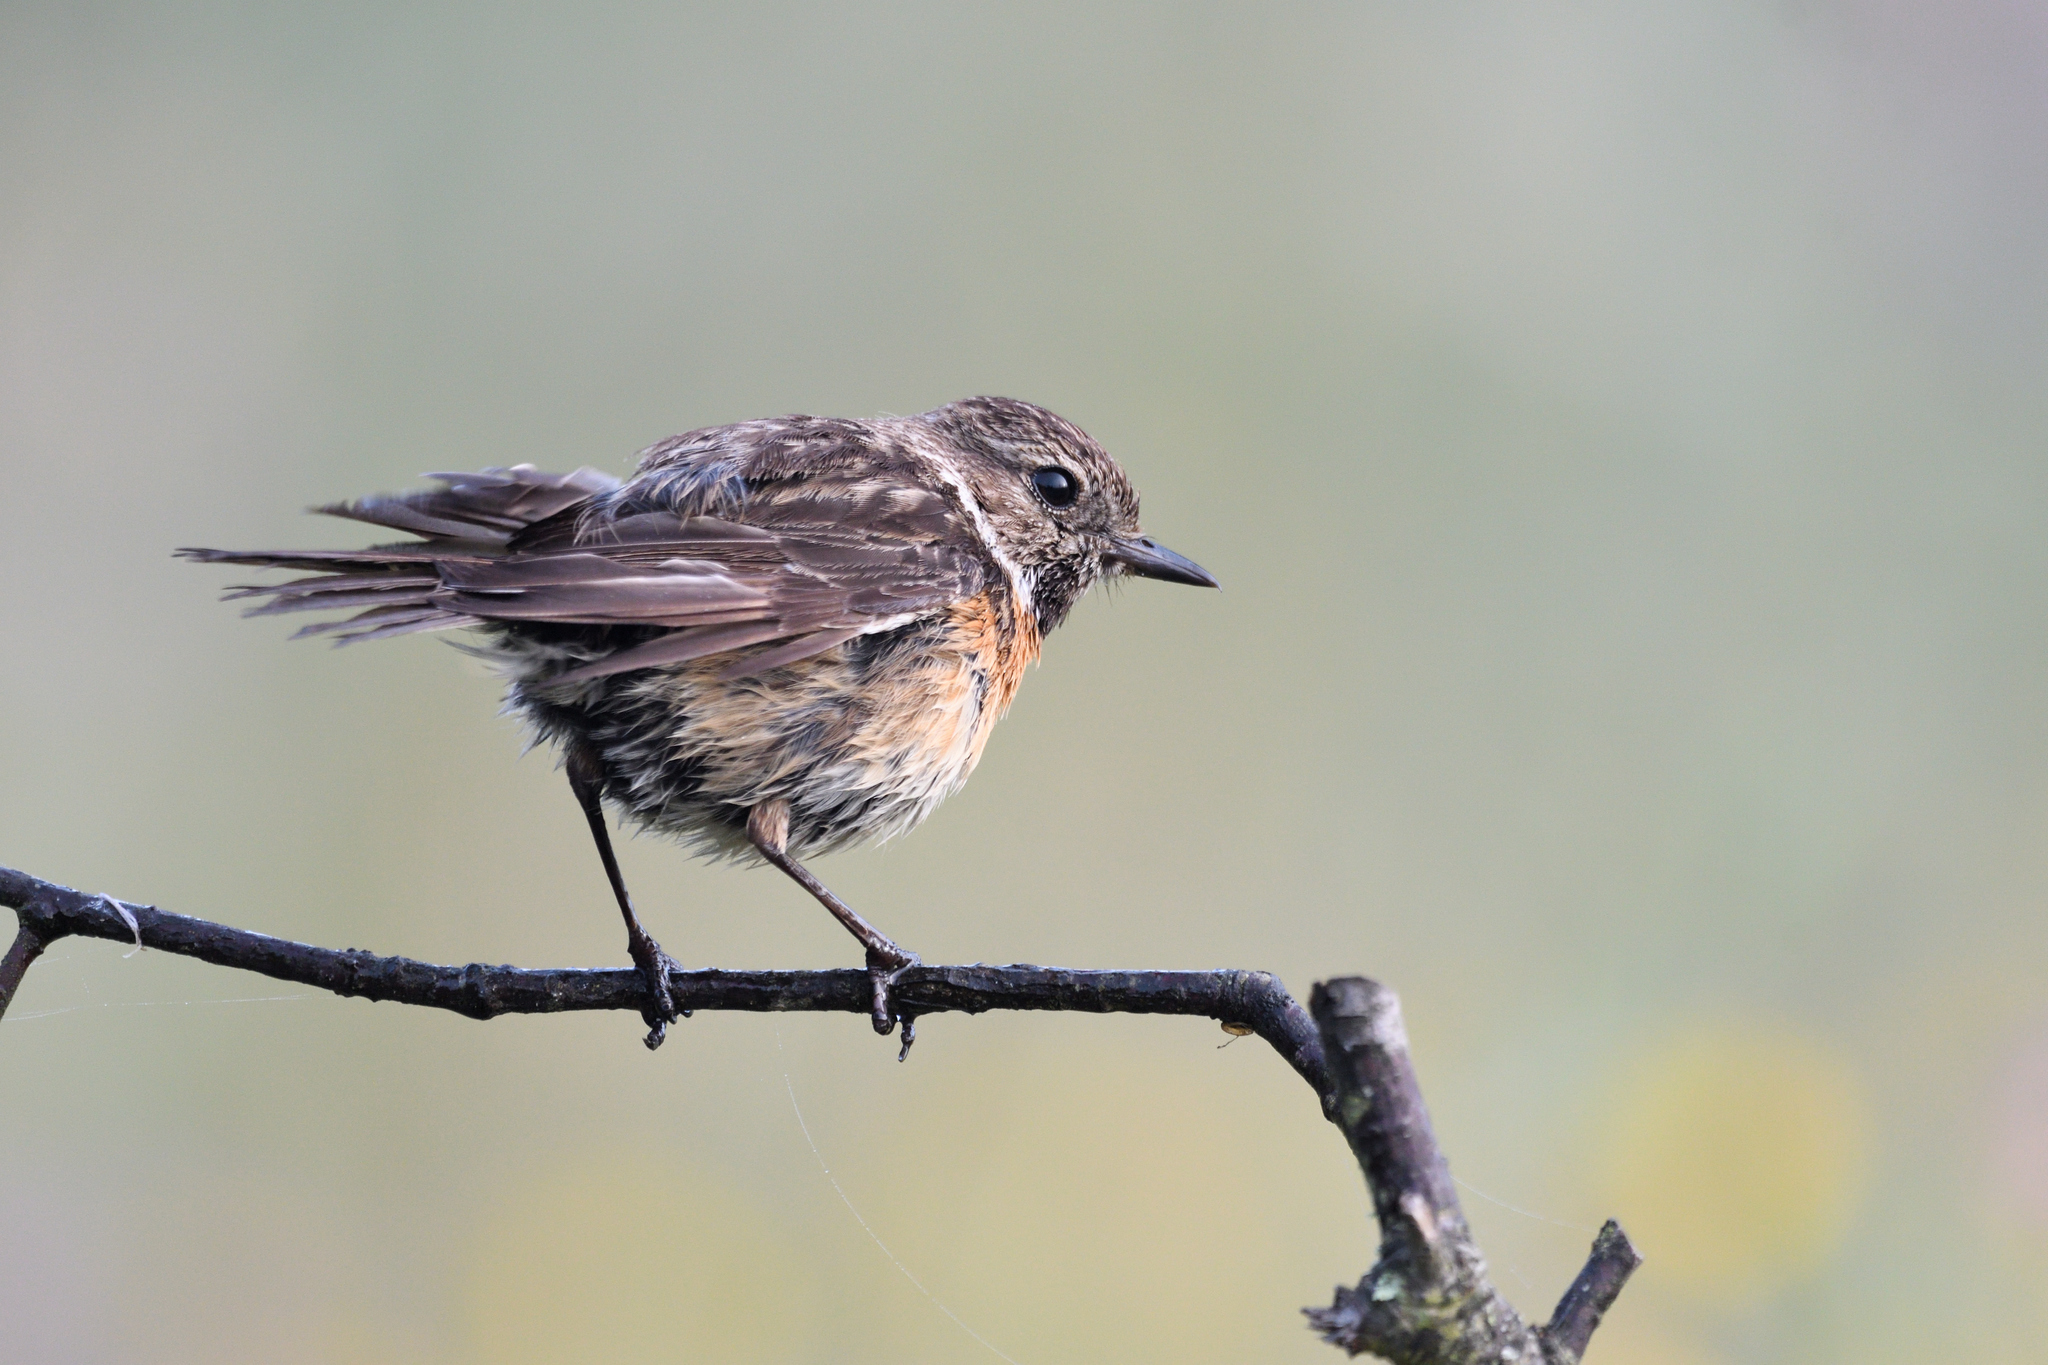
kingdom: Animalia
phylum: Chordata
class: Aves
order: Passeriformes
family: Muscicapidae
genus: Saxicola
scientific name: Saxicola rubicola
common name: European stonechat
